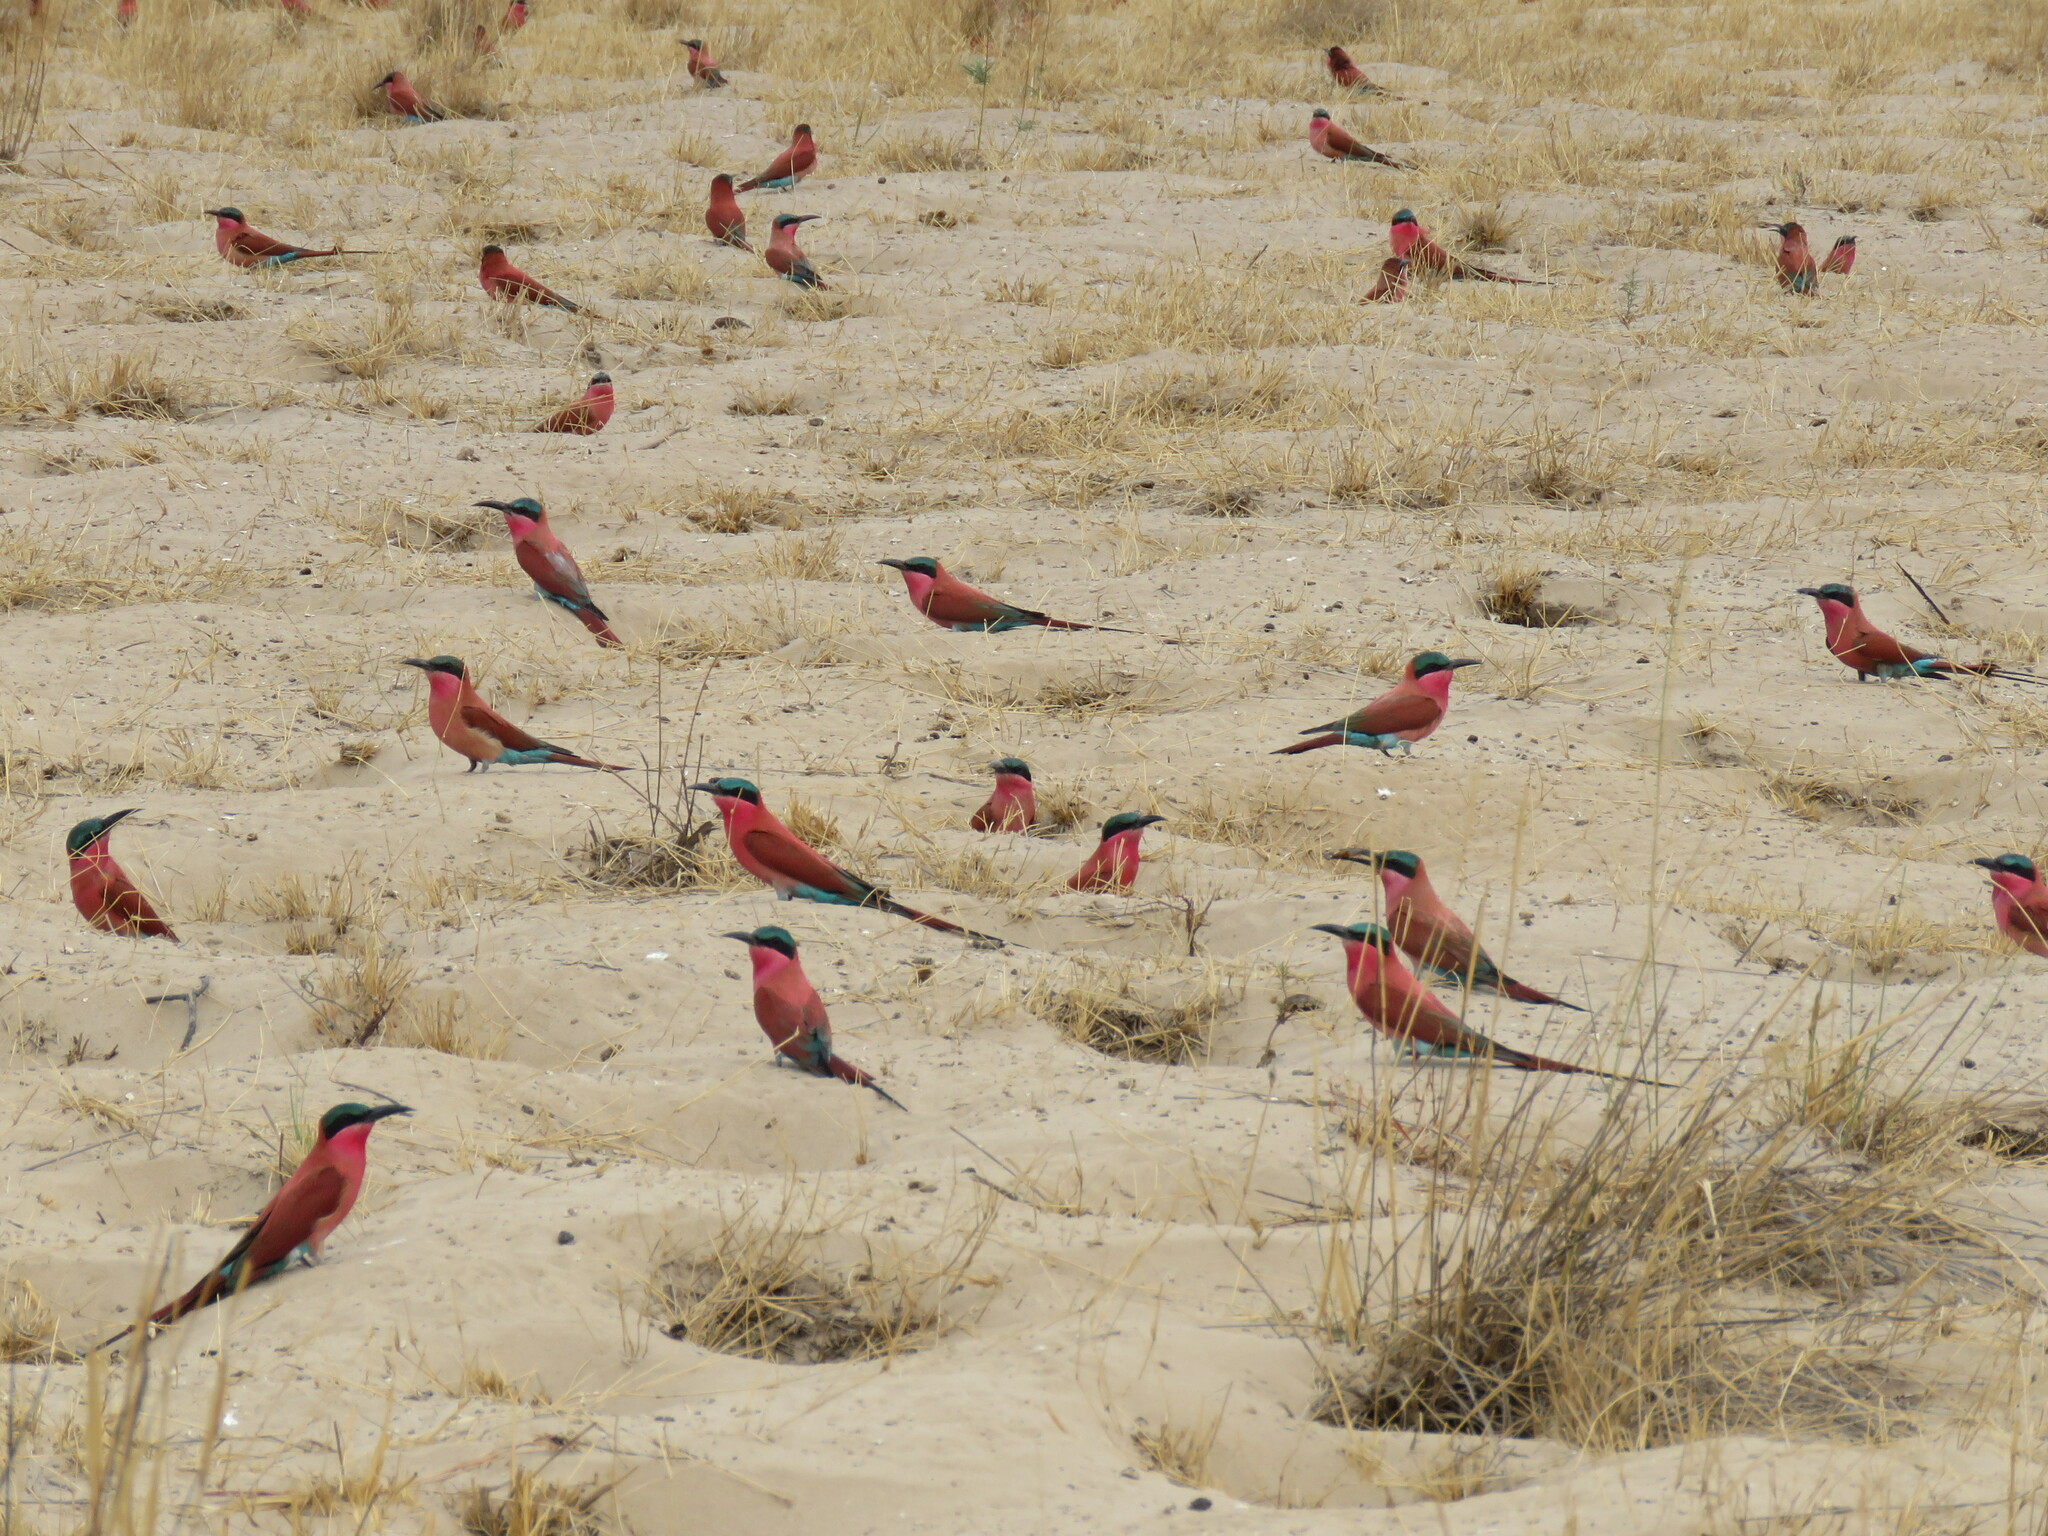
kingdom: Animalia
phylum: Chordata
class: Aves
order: Coraciiformes
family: Meropidae
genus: Merops
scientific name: Merops nubicoides
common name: Southern carmine bee-eater
